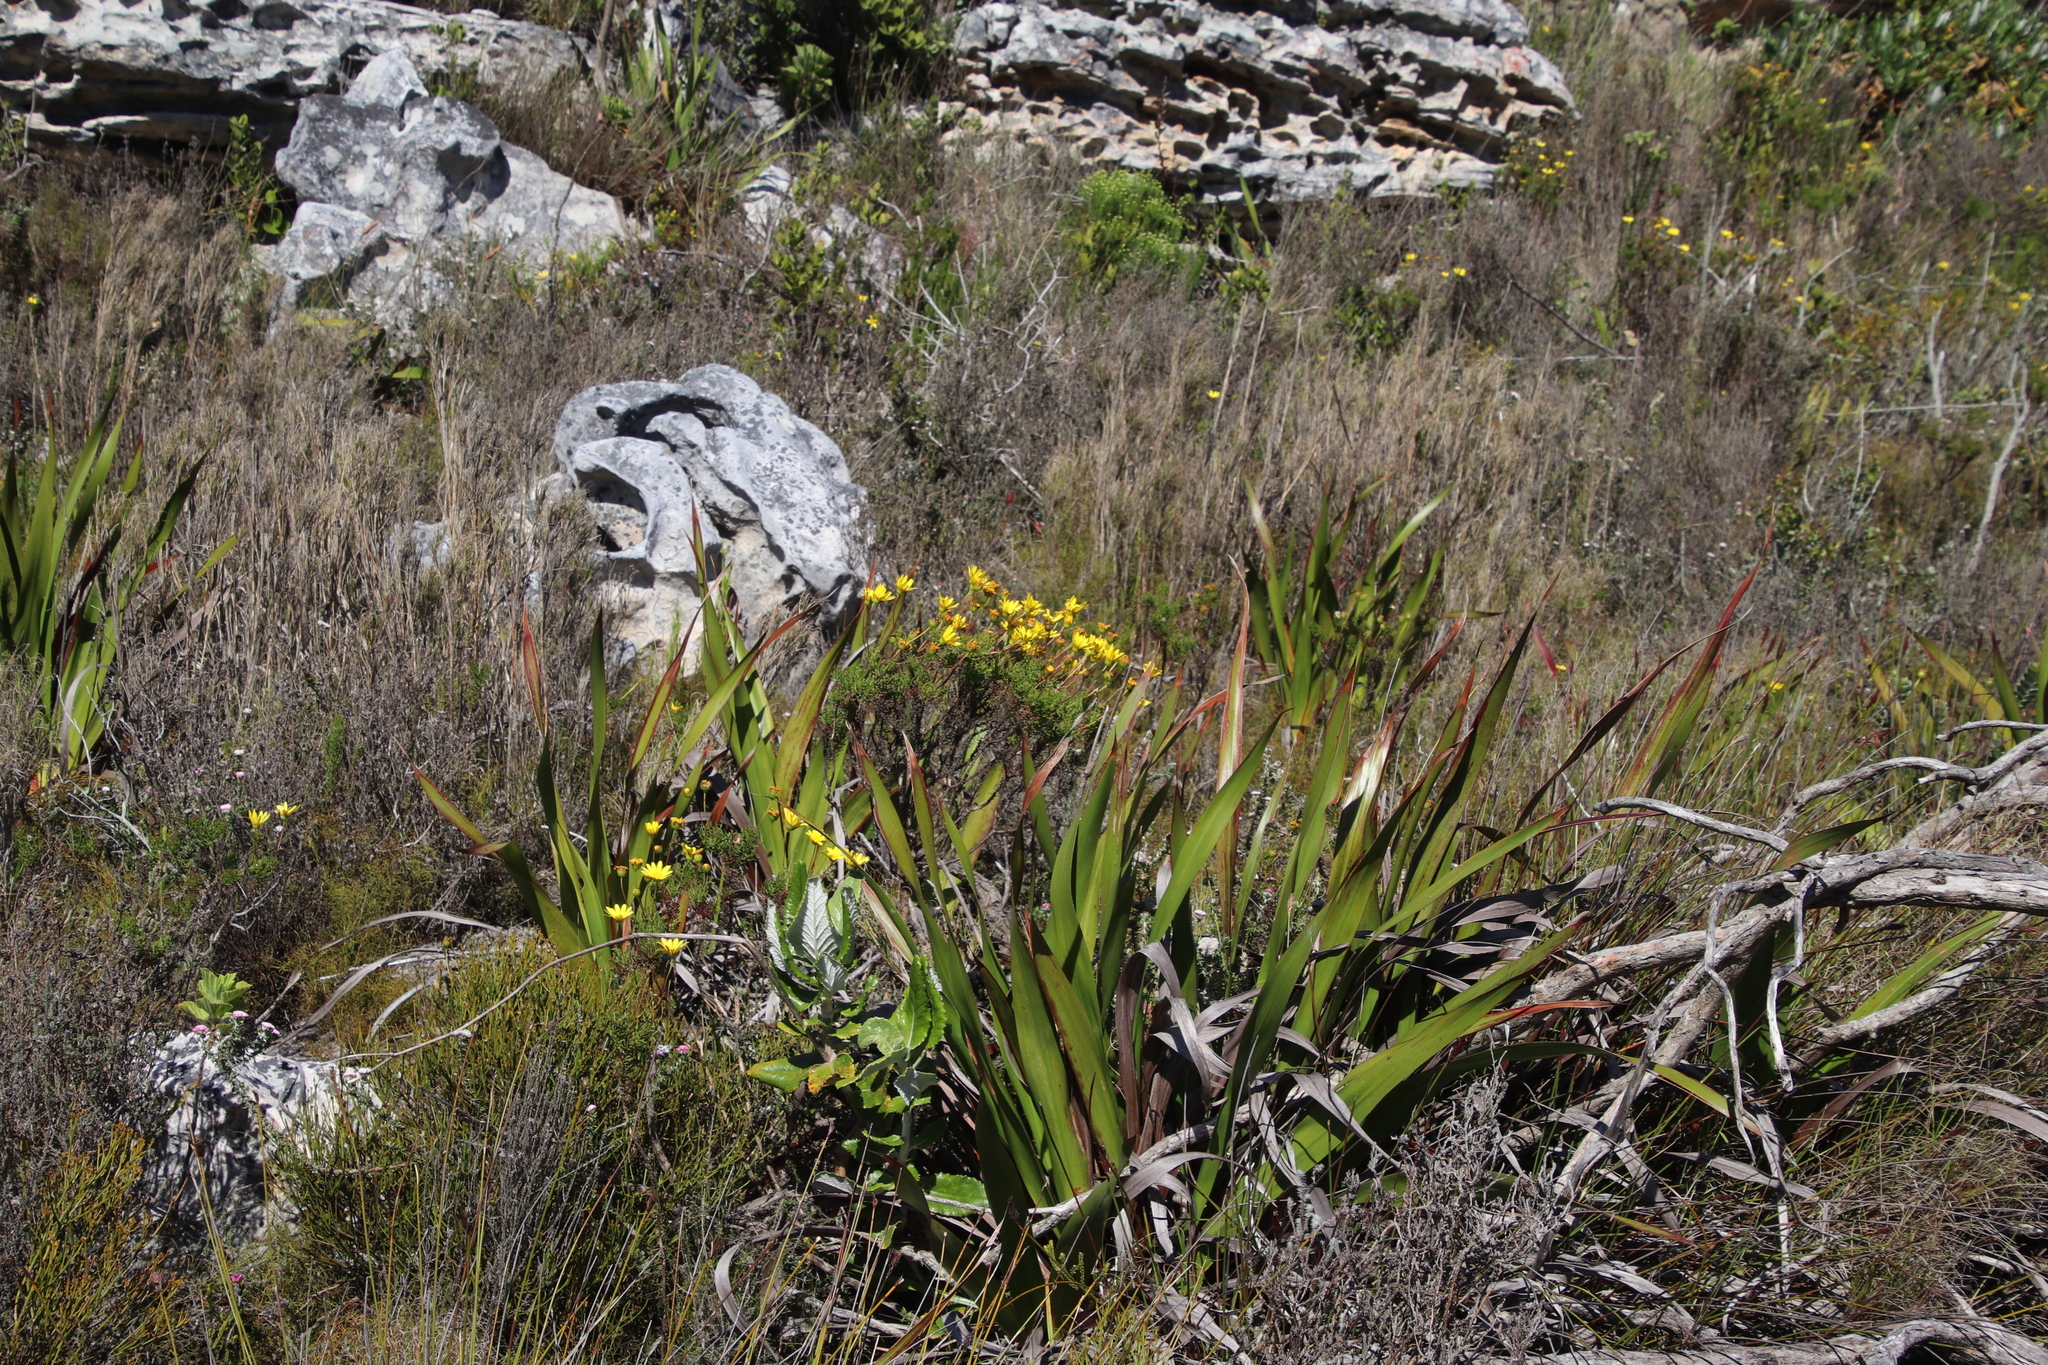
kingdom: Plantae
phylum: Tracheophyta
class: Magnoliopsida
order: Asterales
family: Asteraceae
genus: Euryops
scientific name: Euryops abrotanifolius
